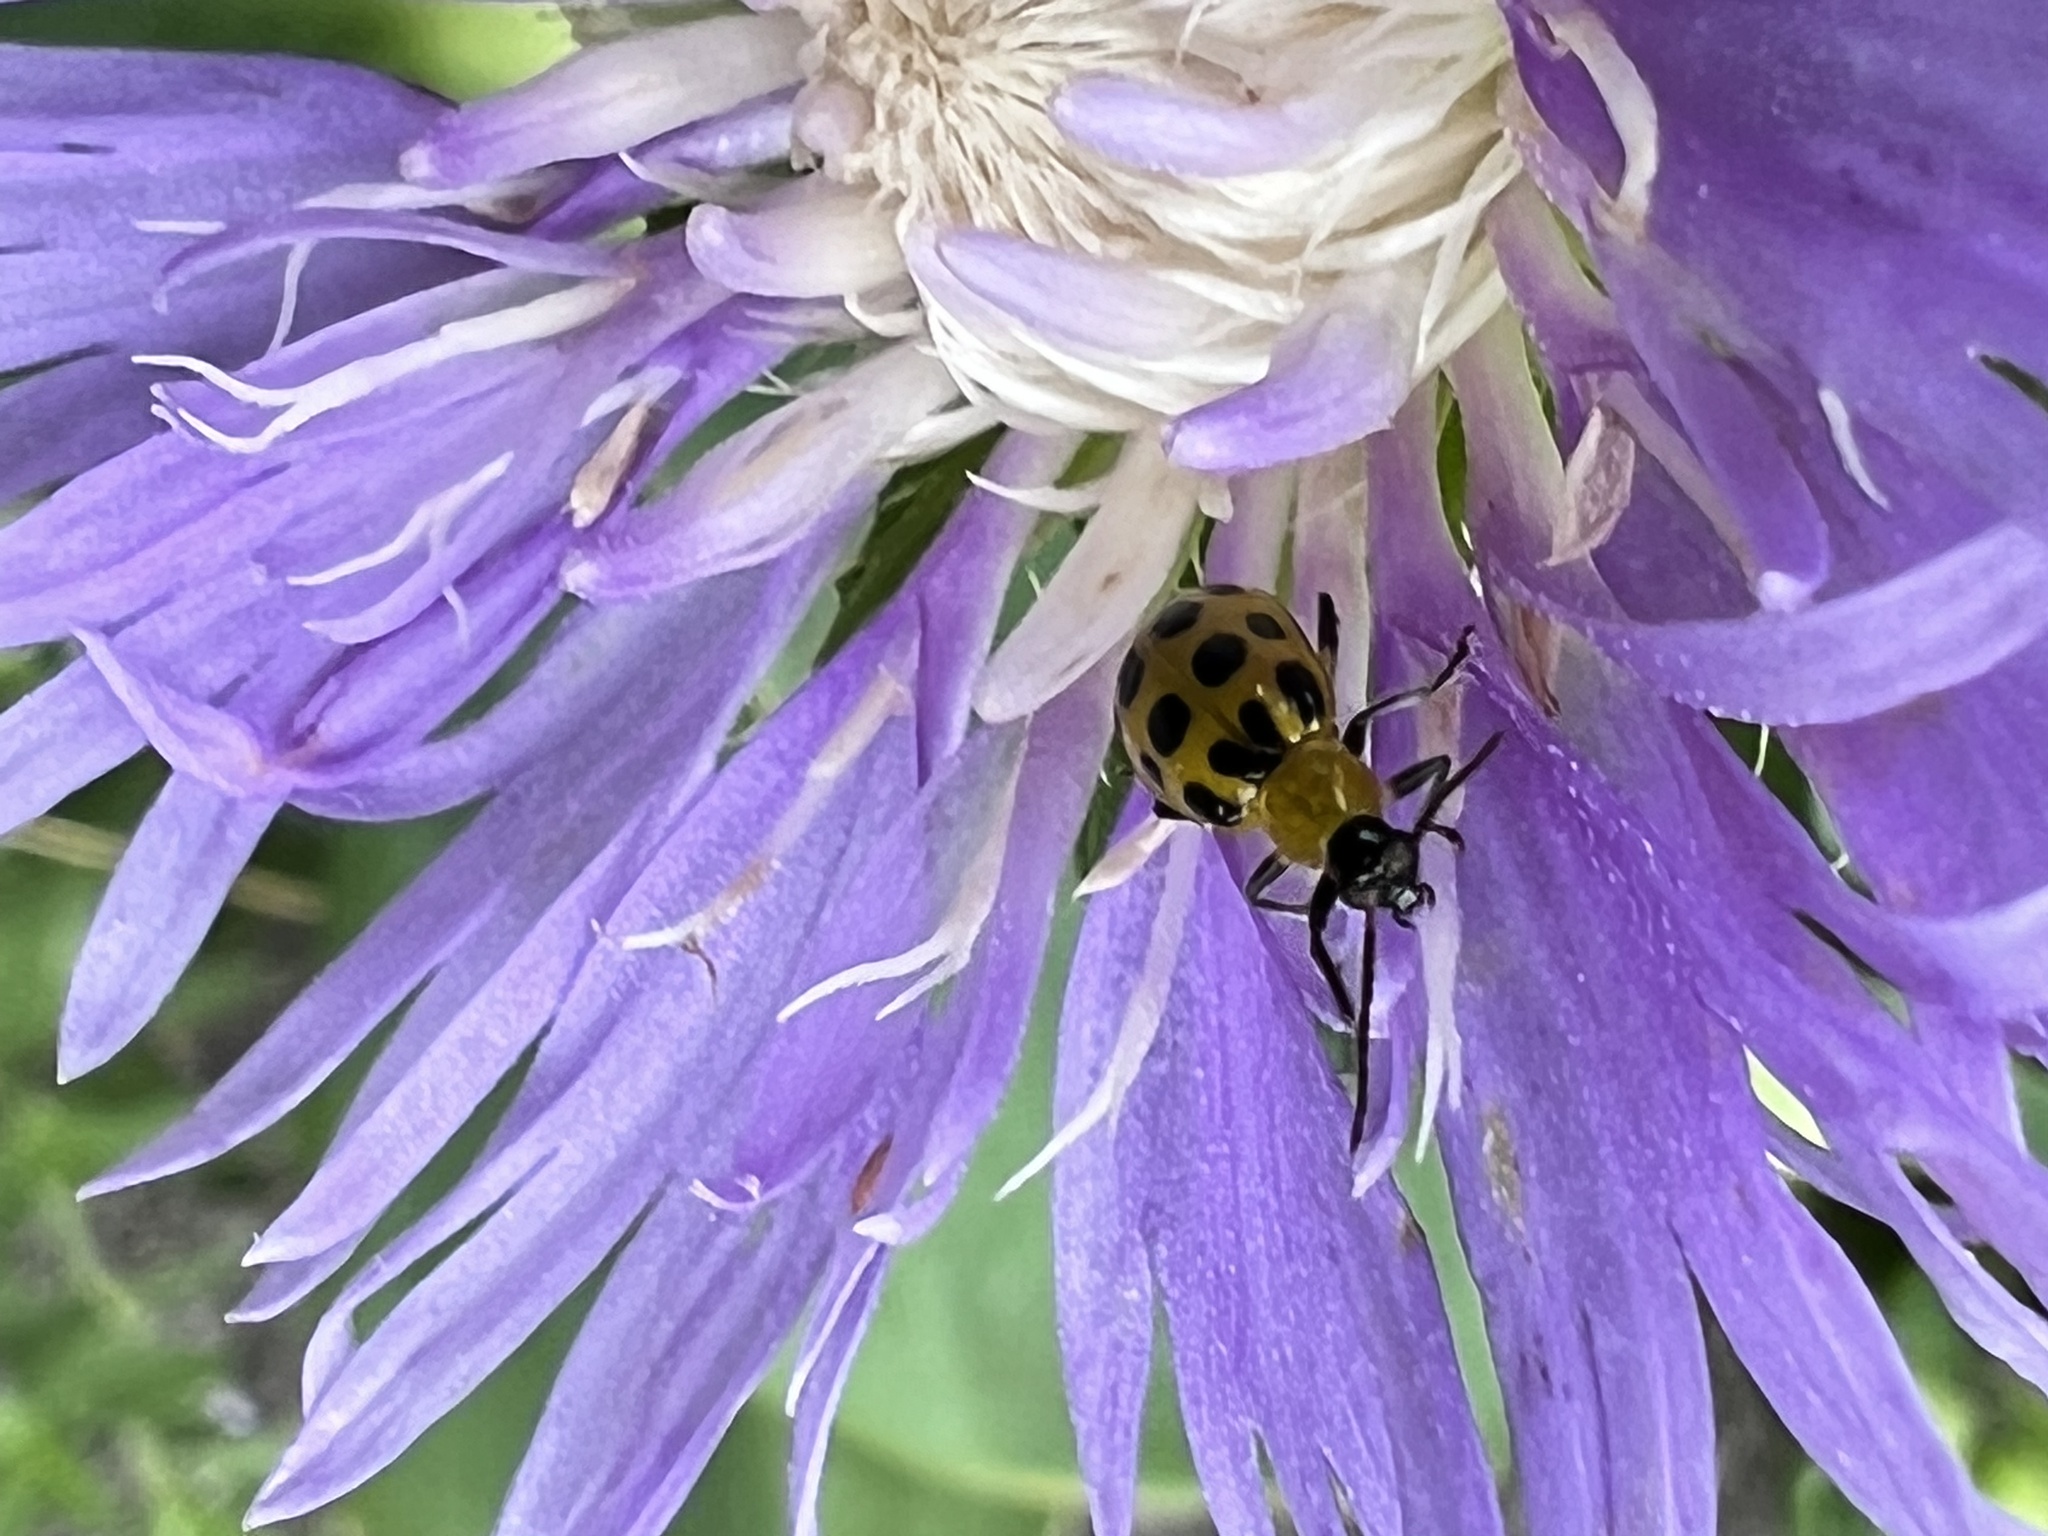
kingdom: Animalia
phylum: Arthropoda
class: Insecta
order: Coleoptera
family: Chrysomelidae
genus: Diabrotica
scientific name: Diabrotica undecimpunctata
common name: Spotted cucumber beetle
